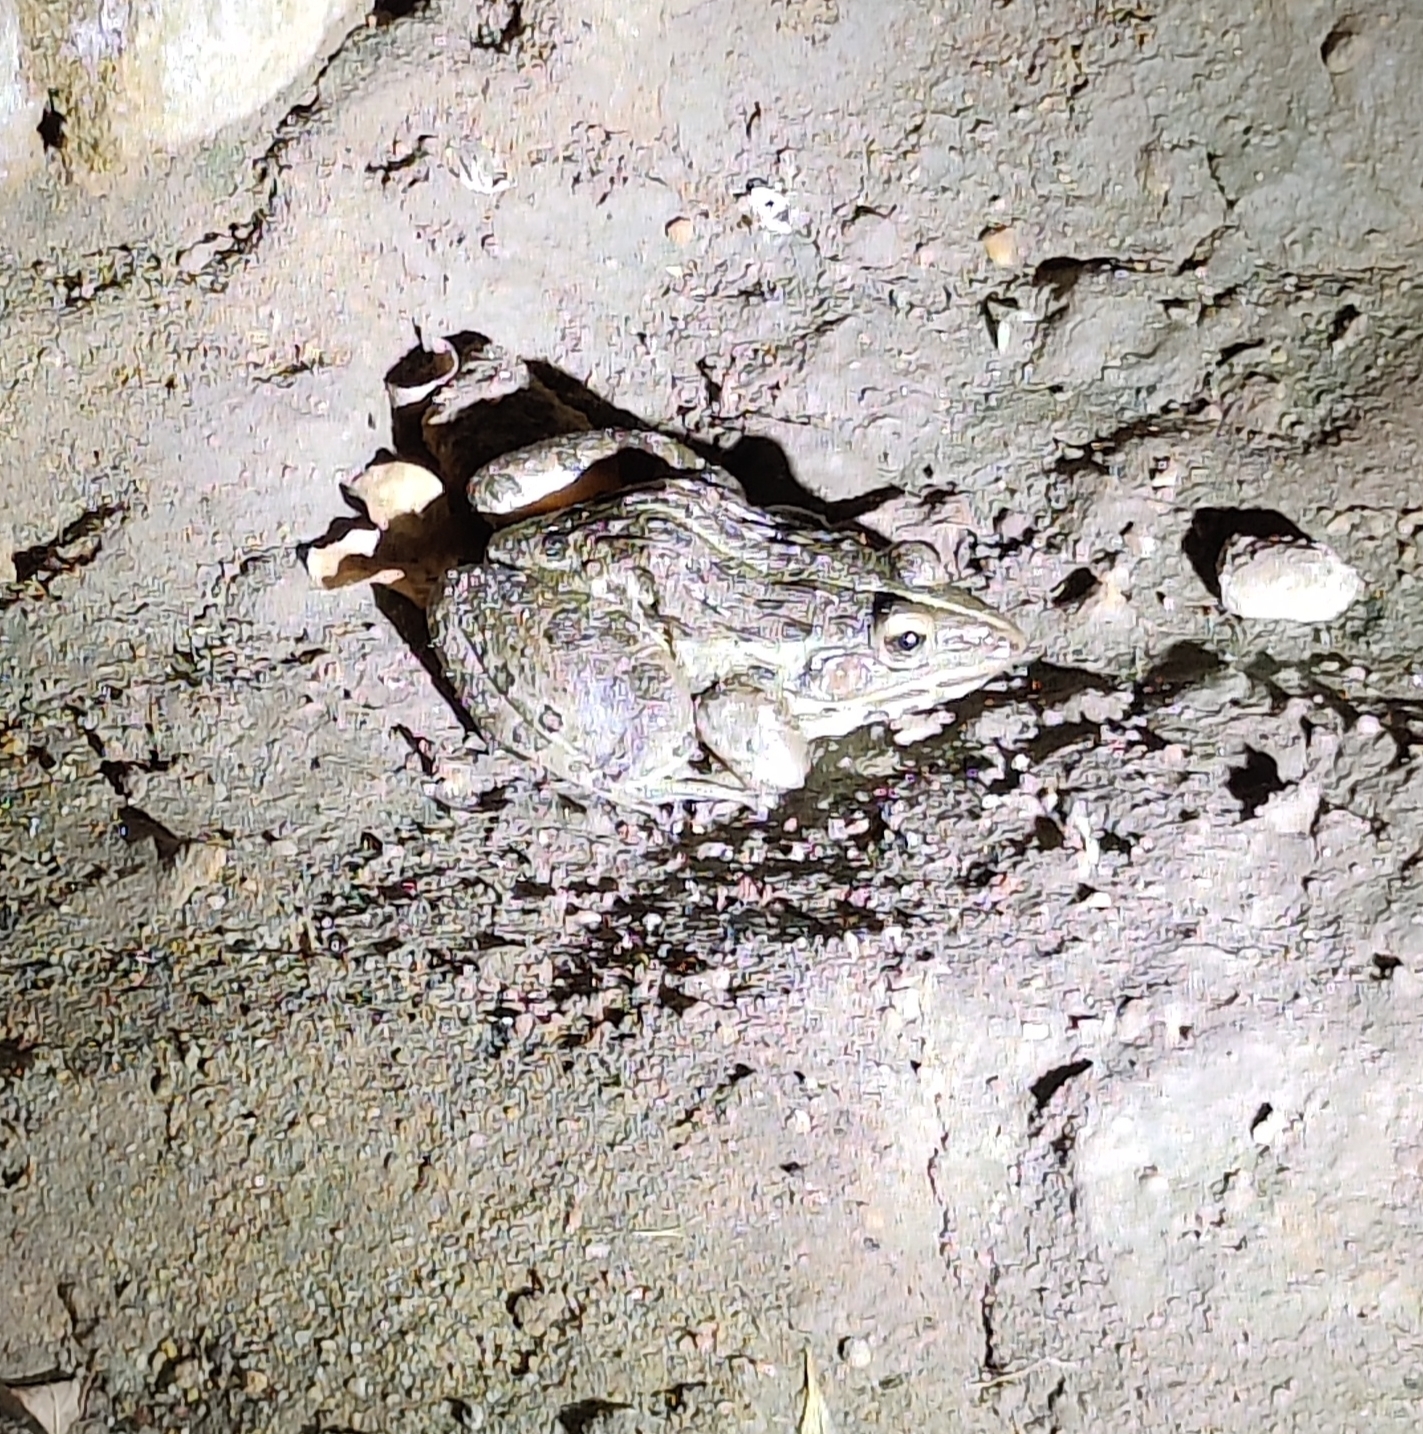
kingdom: Animalia
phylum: Chordata
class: Amphibia
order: Anura
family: Dicroglossidae
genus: Hoplobatrachus
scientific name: Hoplobatrachus tigerinus
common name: Indian bullfrog
